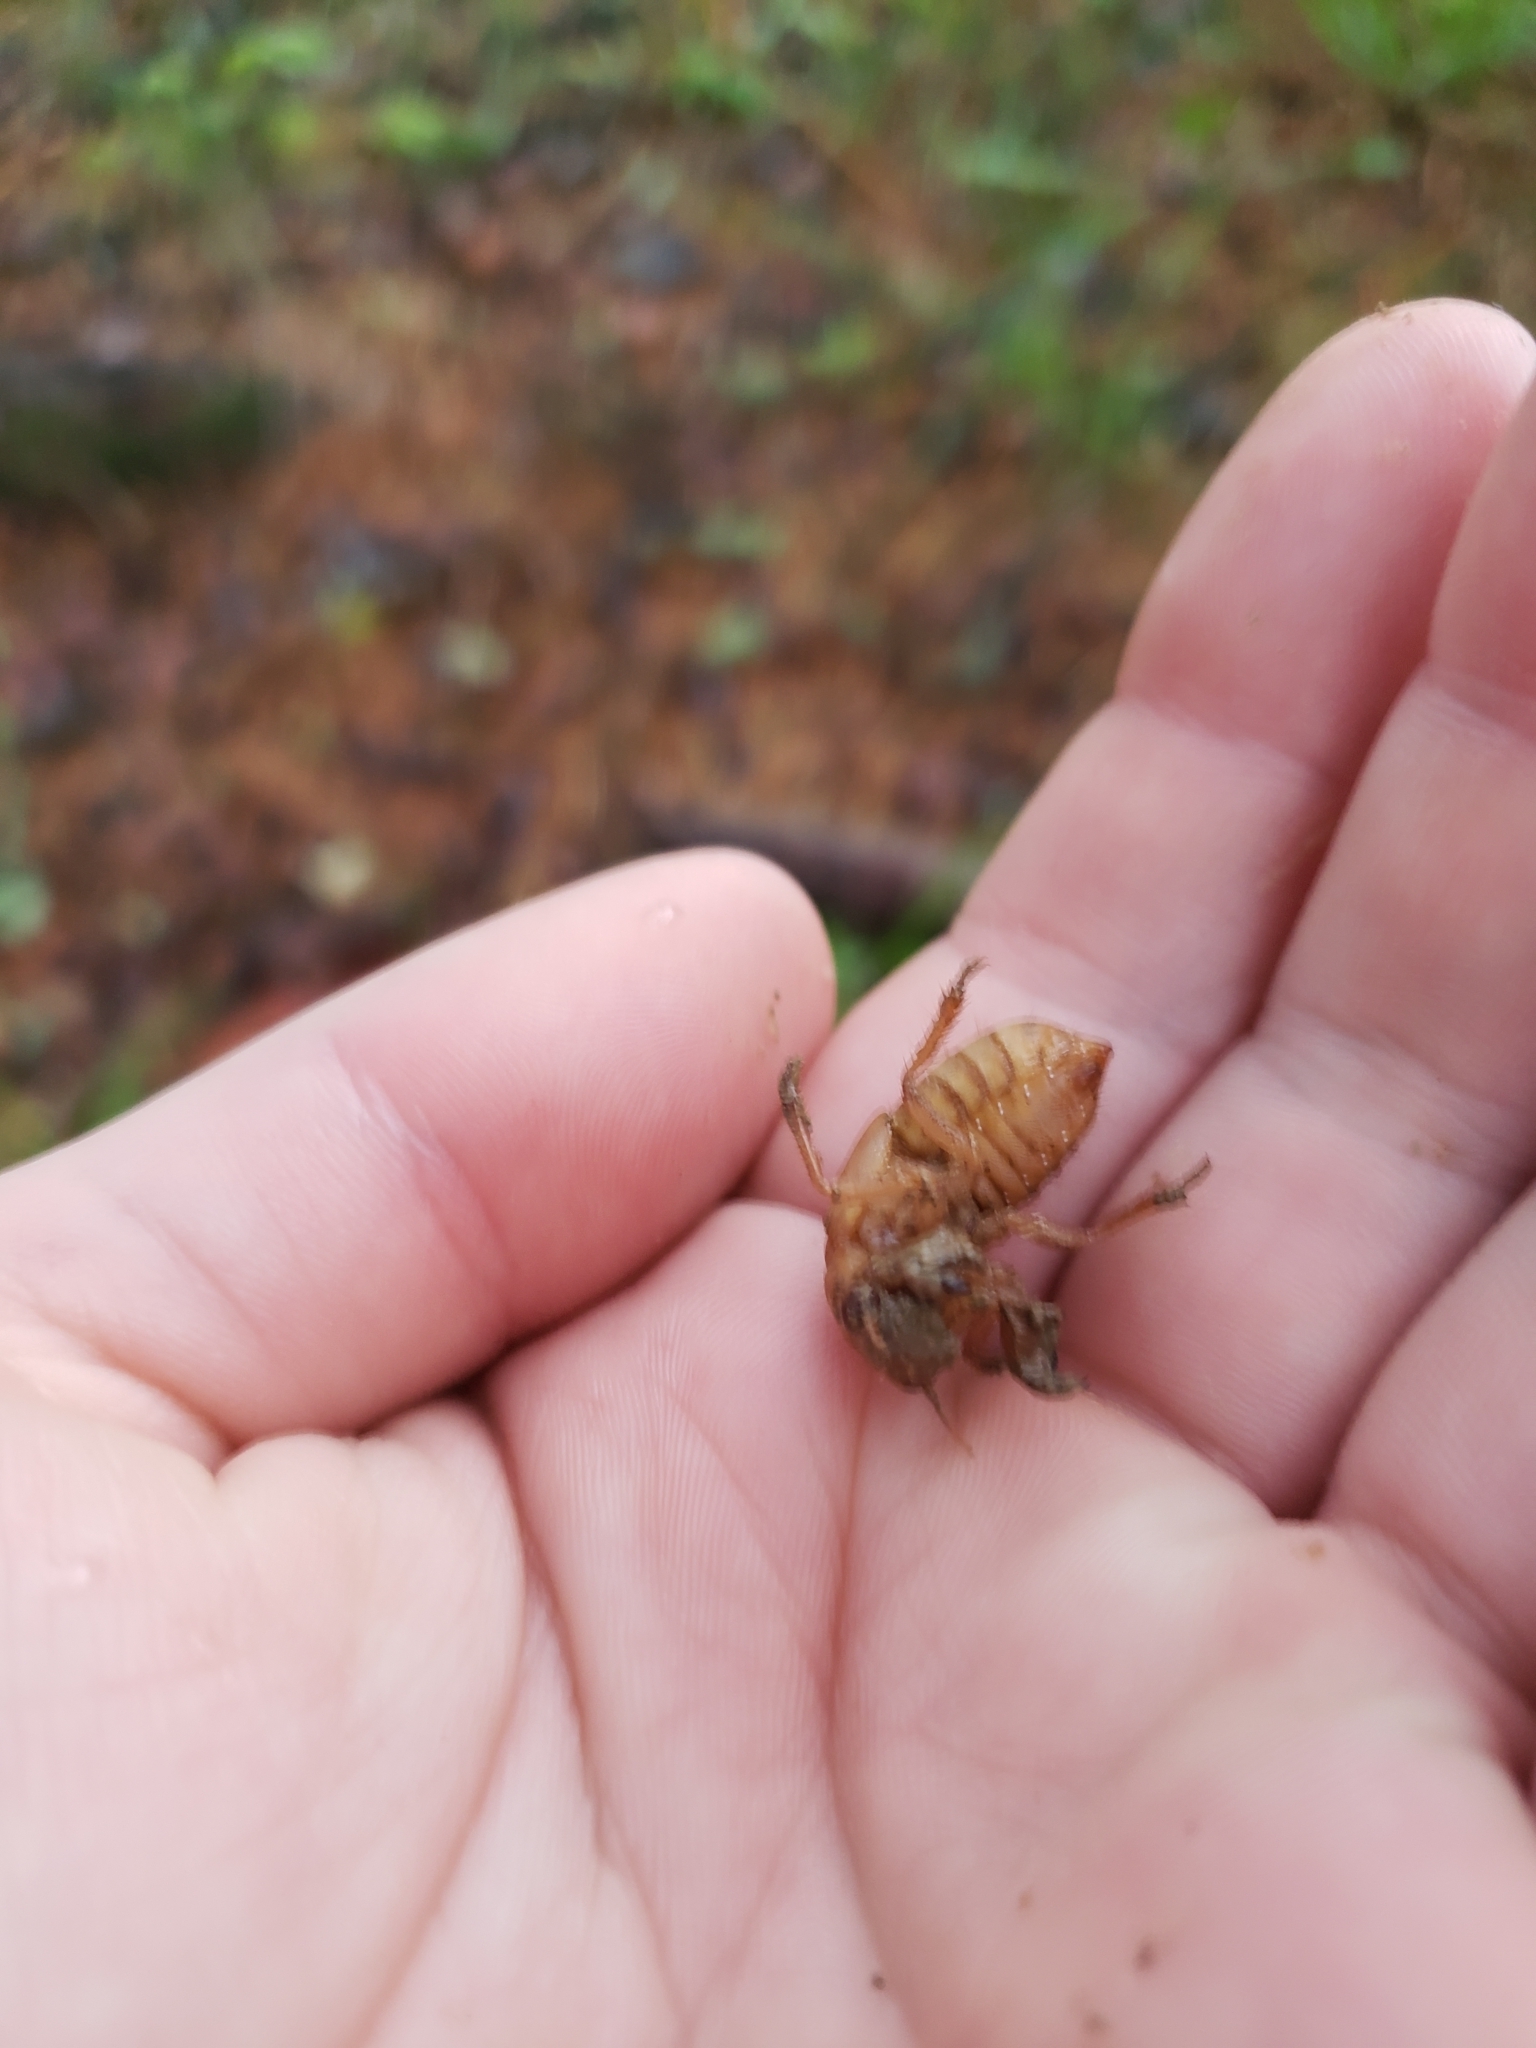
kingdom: Animalia
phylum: Arthropoda
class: Insecta
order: Hemiptera
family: Cicadidae
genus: Magicicada
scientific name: Magicicada
